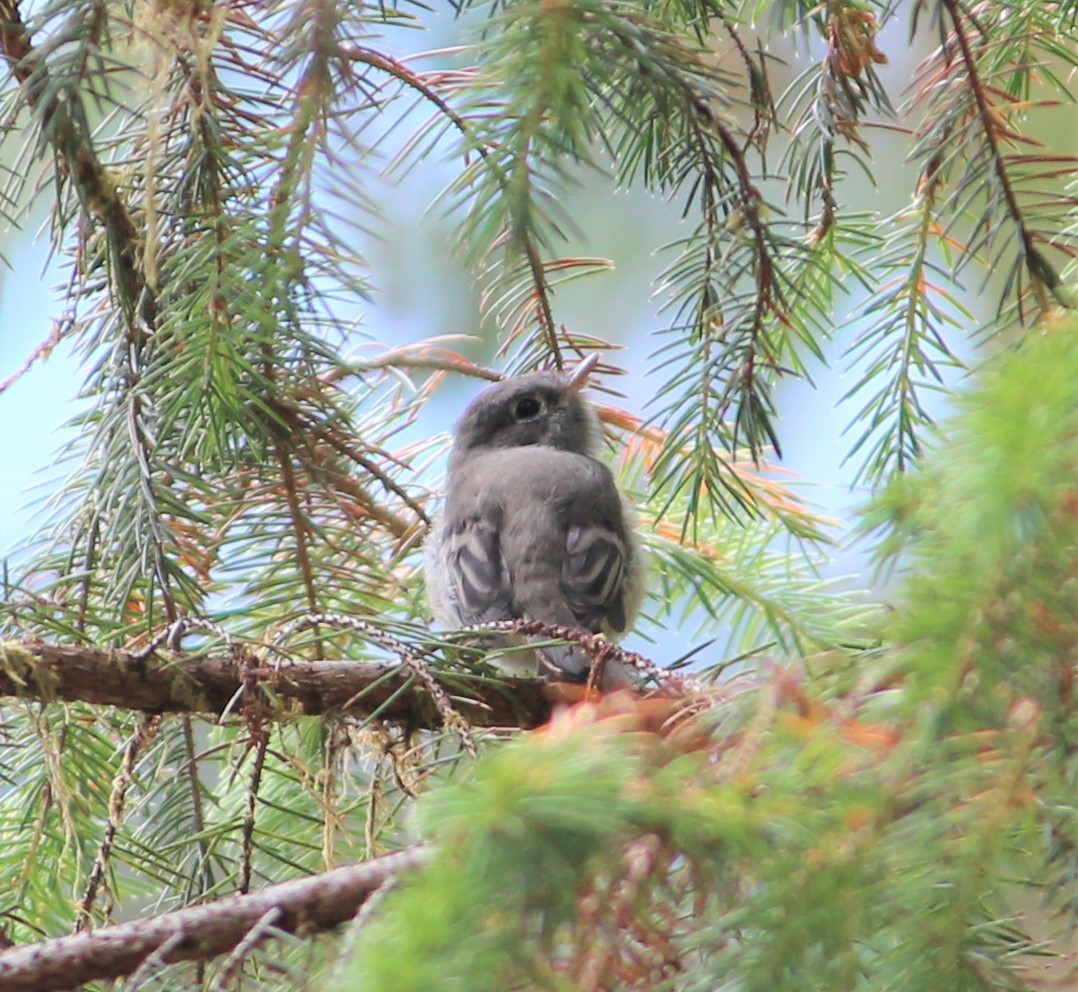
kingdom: Animalia
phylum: Chordata
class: Aves
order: Passeriformes
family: Tyrannidae
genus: Empidonax
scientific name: Empidonax hammondii
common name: Hammond's flycatcher
